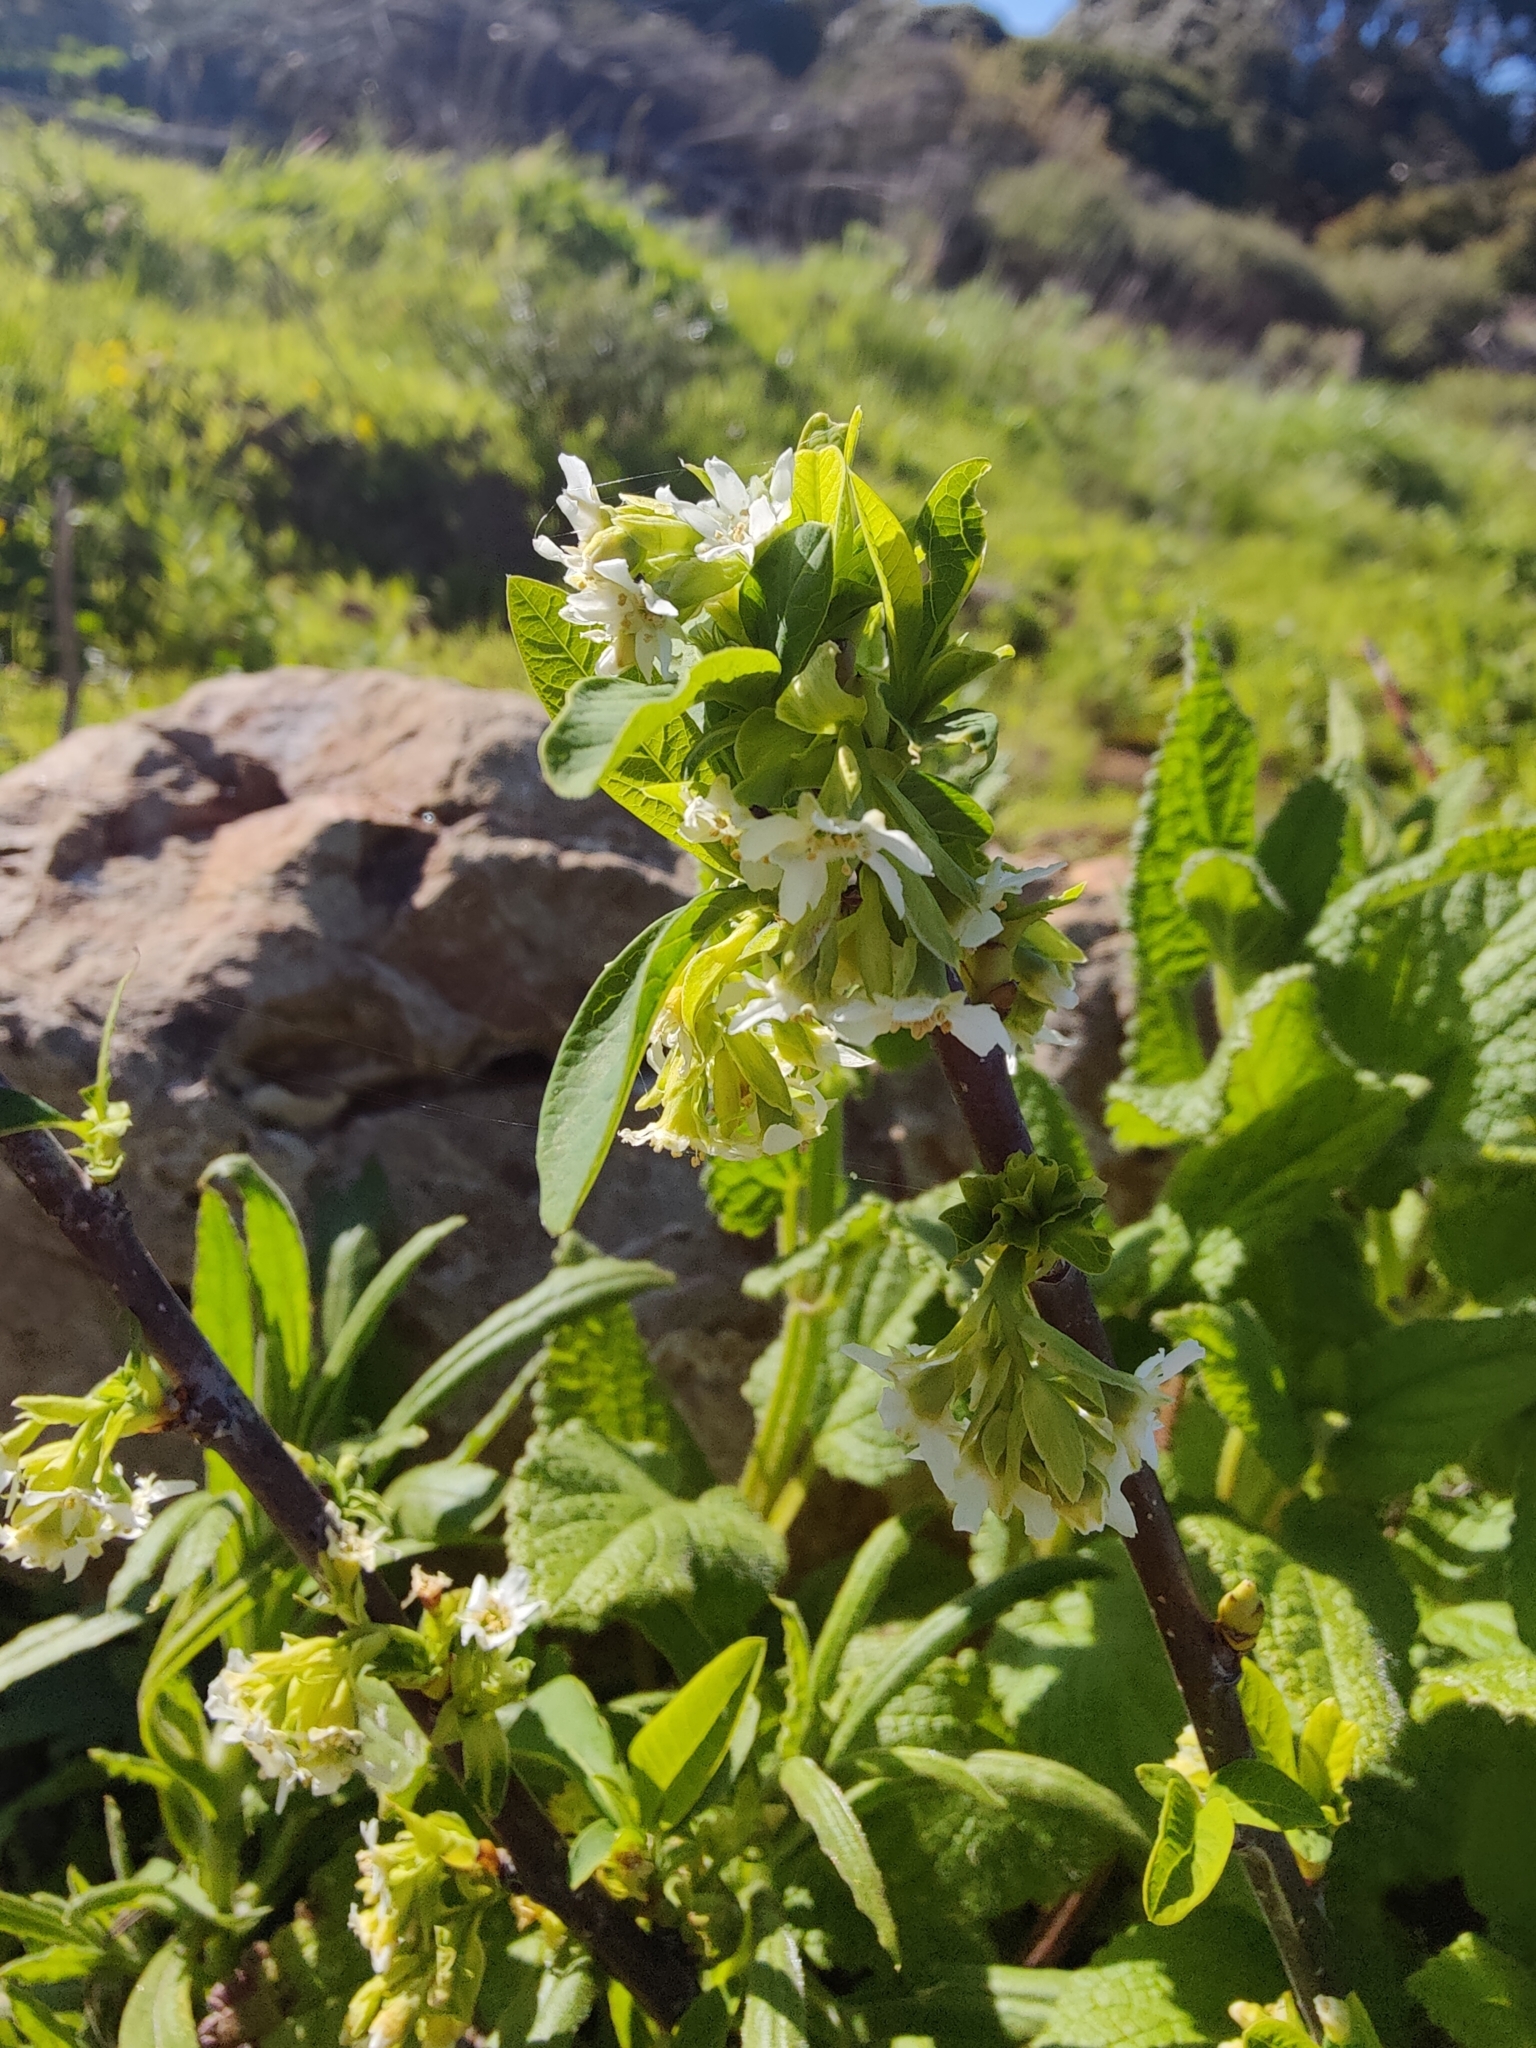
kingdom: Plantae
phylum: Tracheophyta
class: Magnoliopsida
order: Rosales
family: Rosaceae
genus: Oemleria
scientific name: Oemleria cerasiformis
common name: Osoberry
